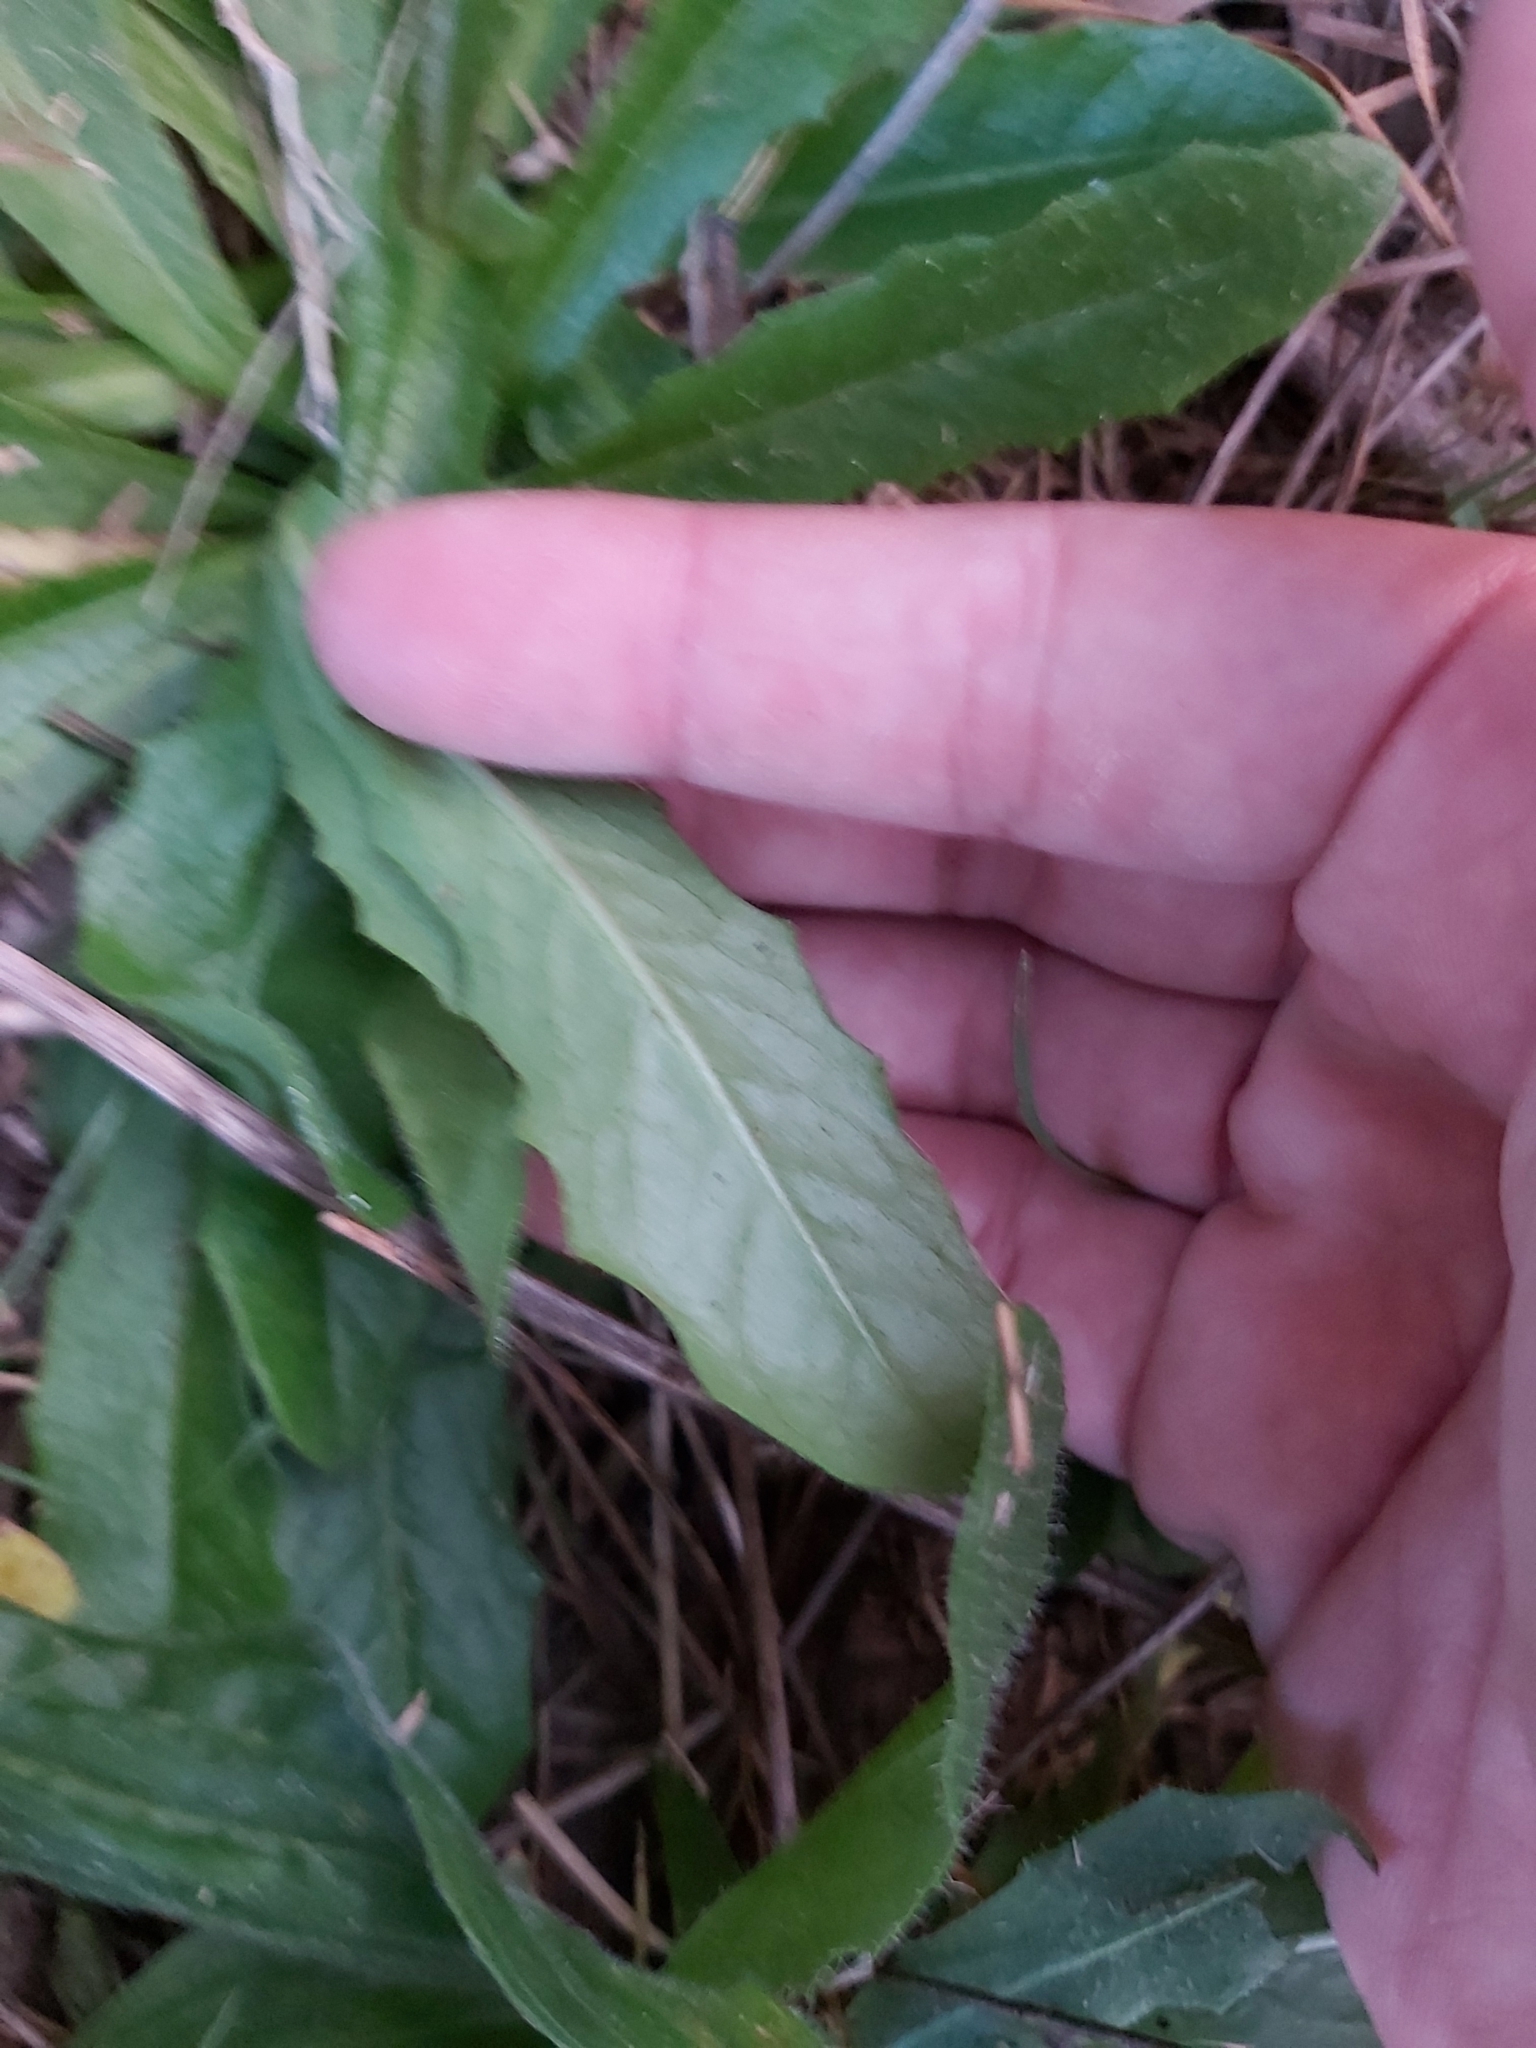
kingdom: Plantae
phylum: Tracheophyta
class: Magnoliopsida
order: Asterales
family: Asteraceae
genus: Hypochaeris
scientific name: Hypochaeris radicata
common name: Flatweed
